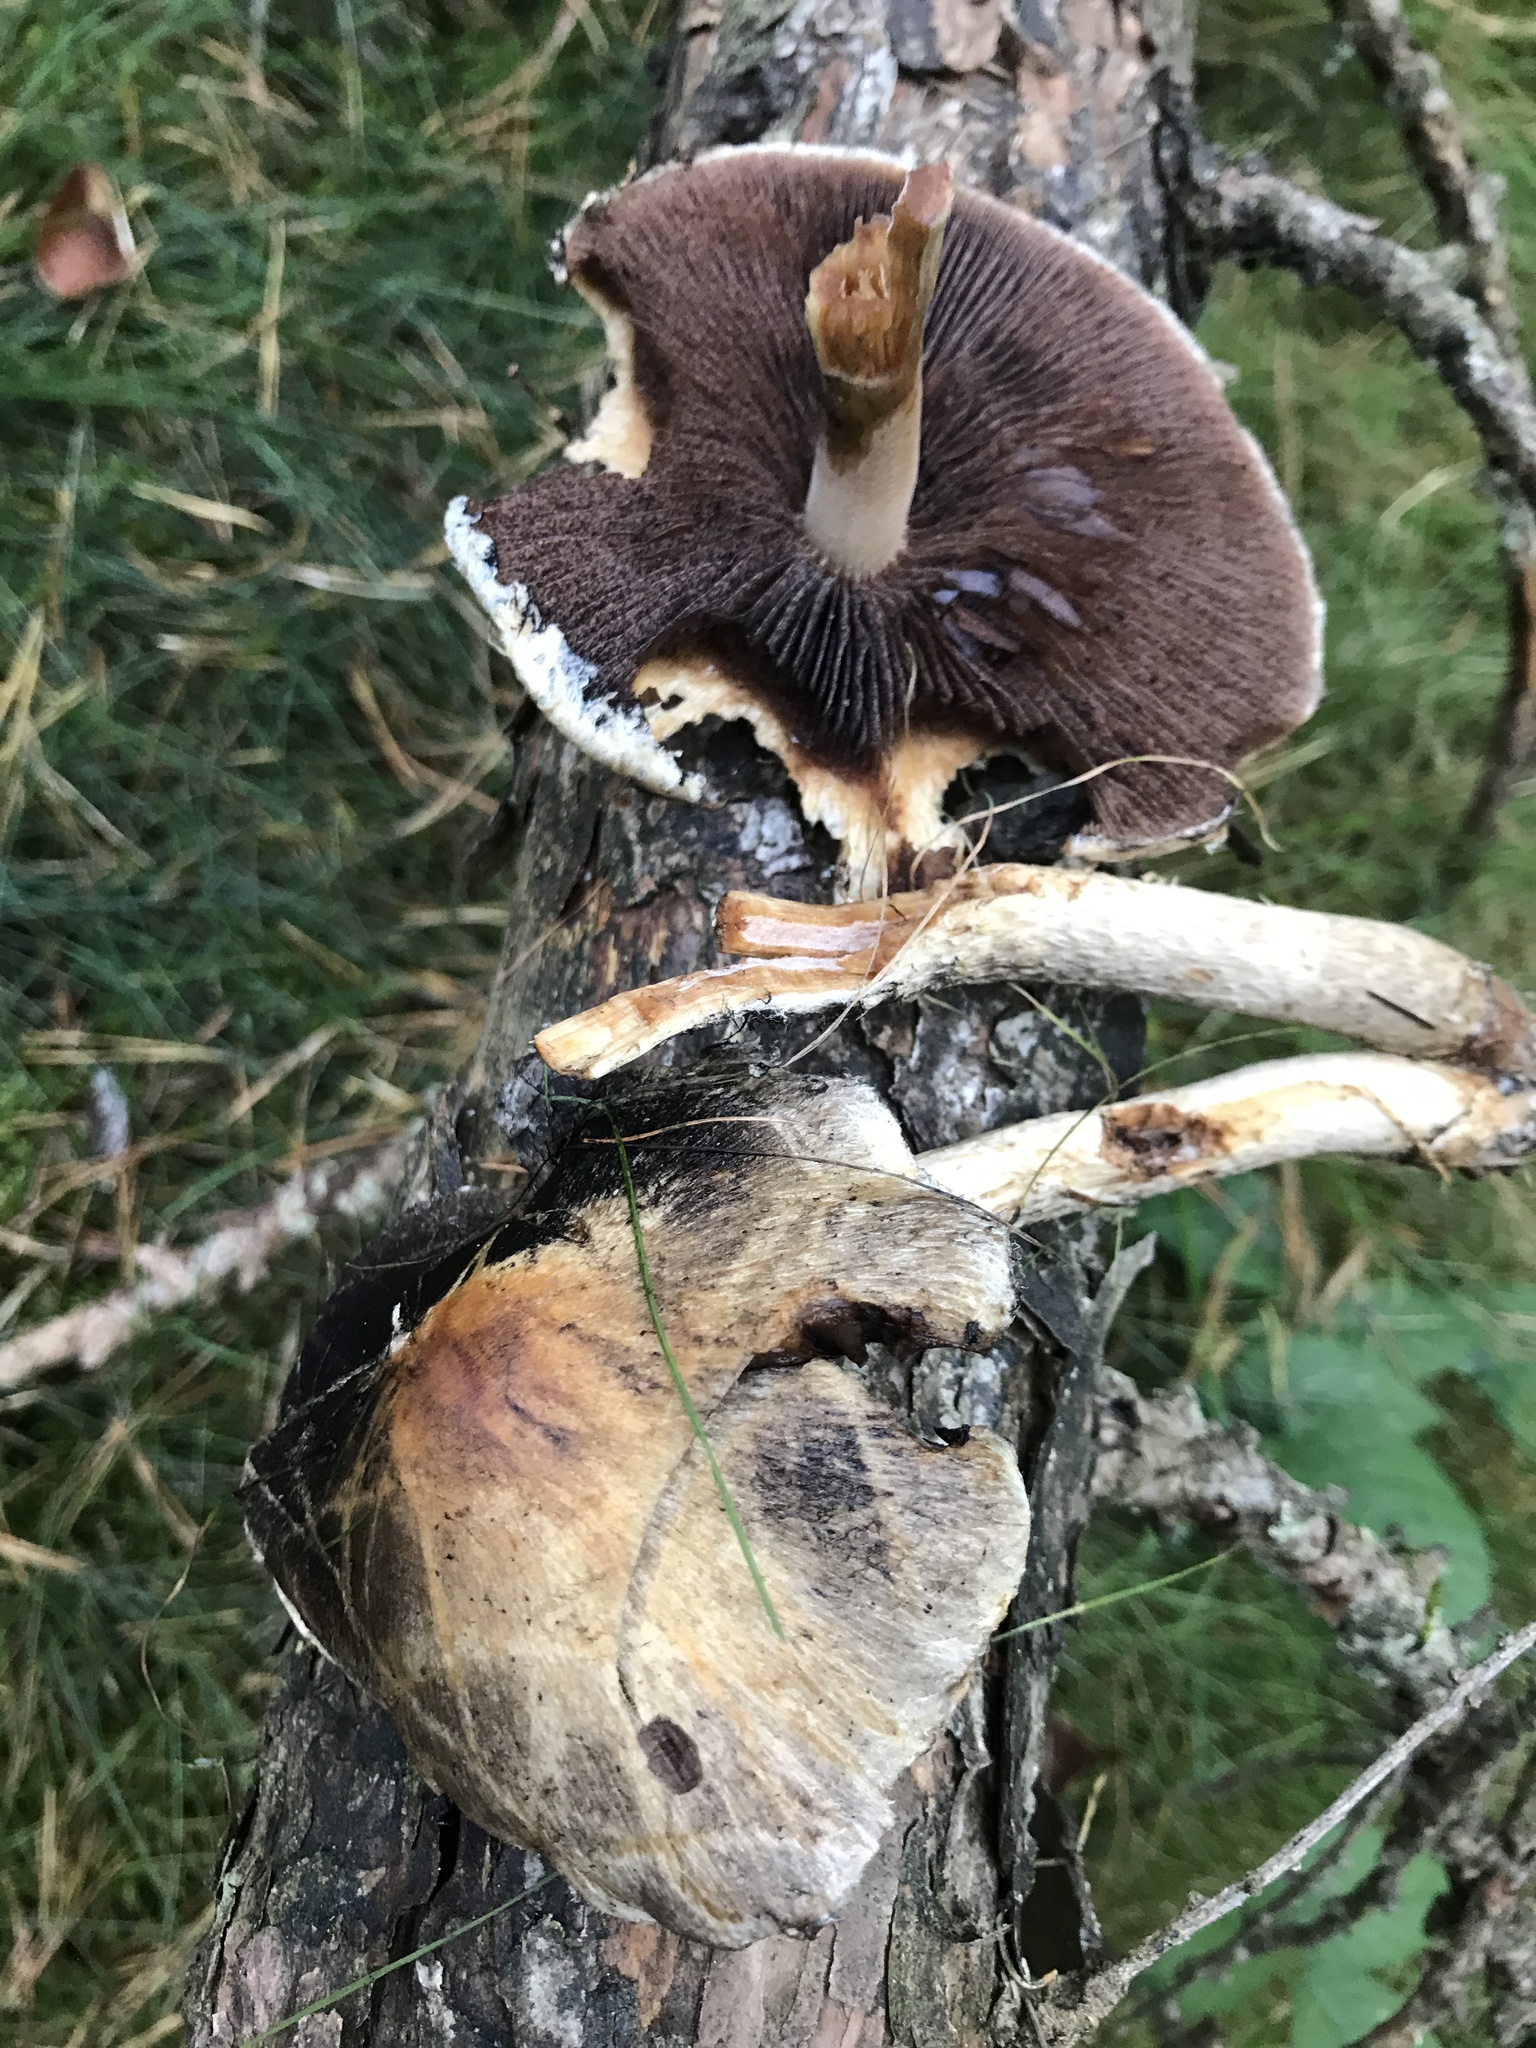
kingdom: Fungi
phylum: Basidiomycota
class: Agaricomycetes
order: Agaricales
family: Psathyrellaceae
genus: Lacrymaria
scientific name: Lacrymaria lacrymabunda
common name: Weeping widow
